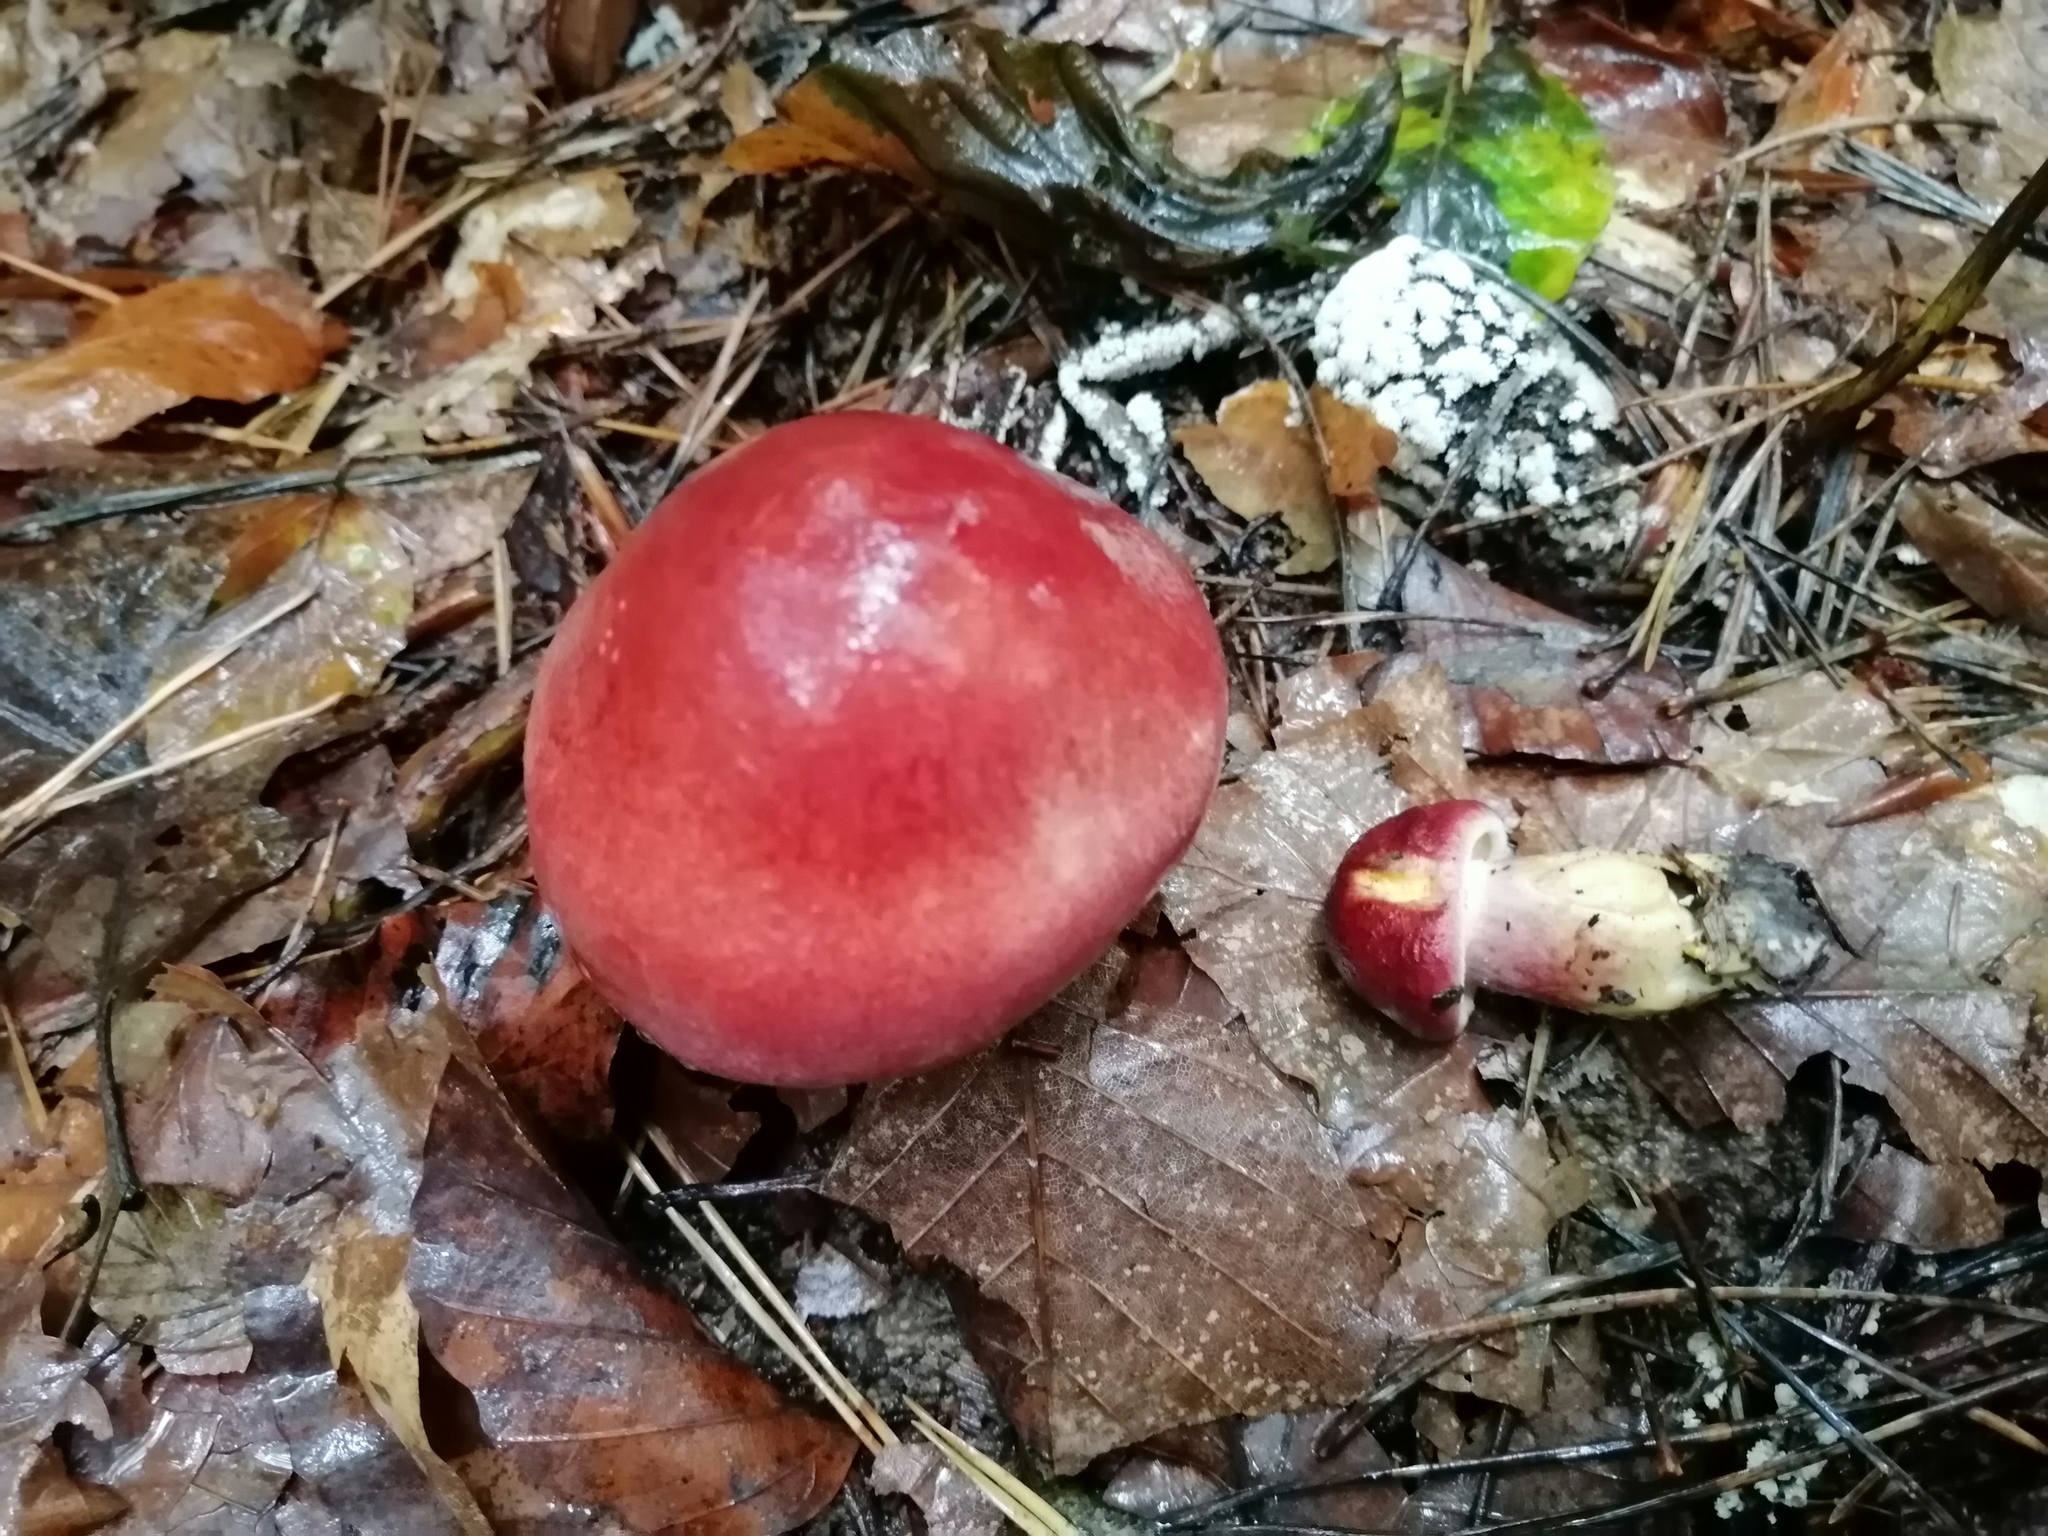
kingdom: Fungi
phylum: Basidiomycota
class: Agaricomycetes
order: Agaricales
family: Tricholomataceae
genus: Tricholomopsis
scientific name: Tricholomopsis rutilans
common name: Plums and custard
